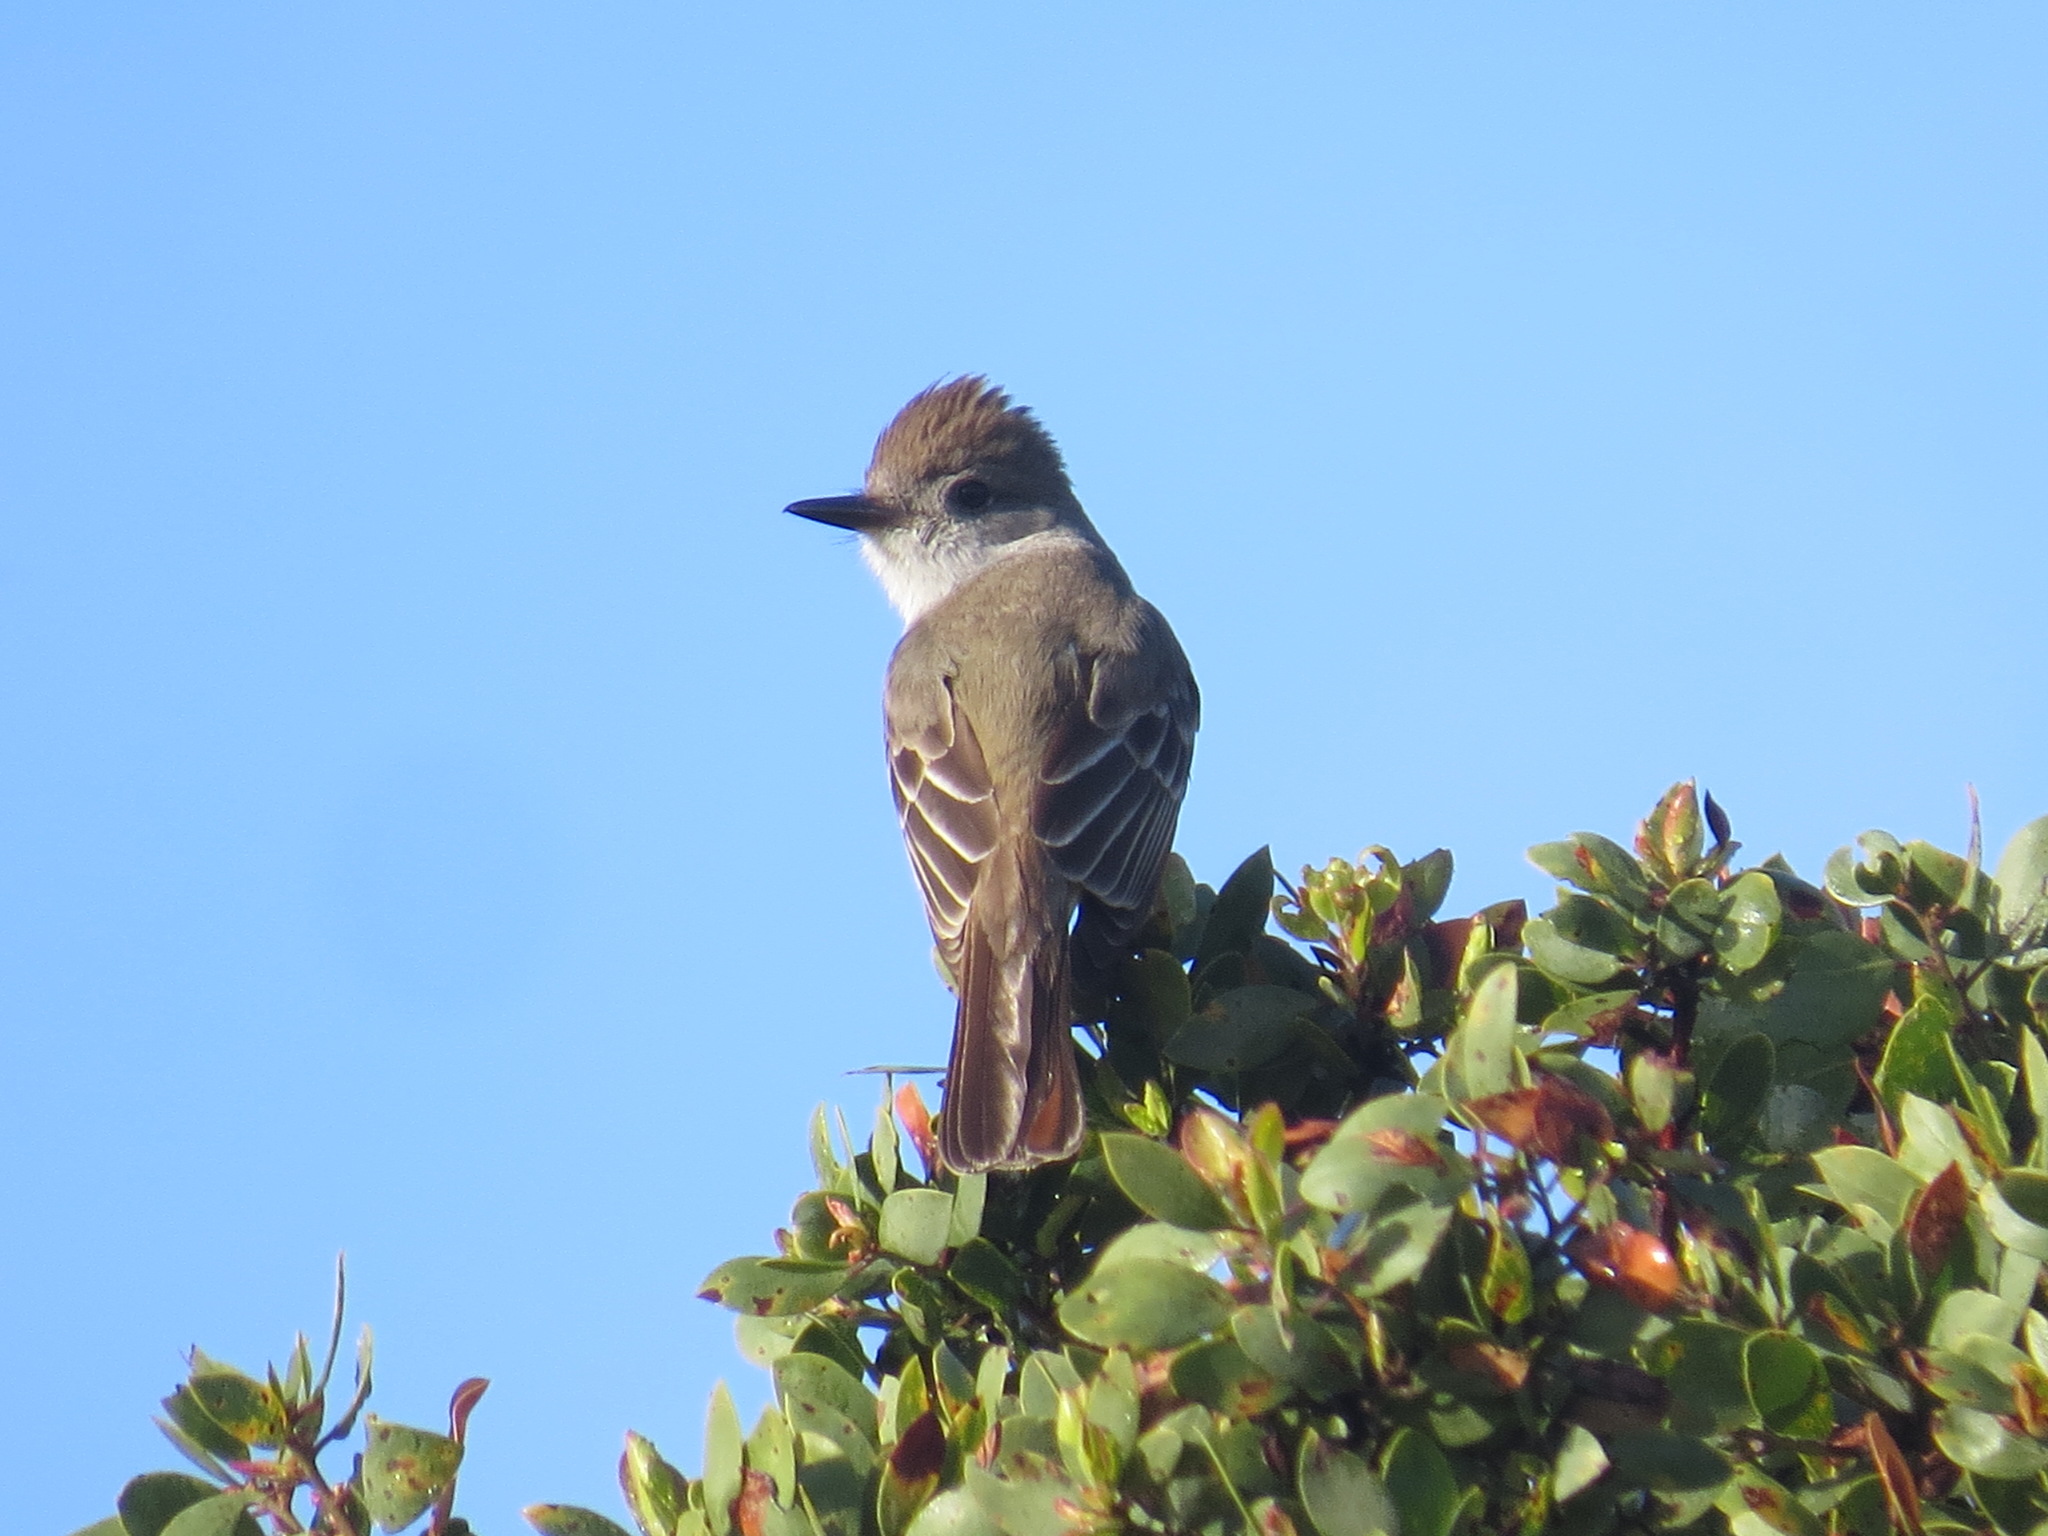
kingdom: Animalia
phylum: Chordata
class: Aves
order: Passeriformes
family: Tyrannidae
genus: Myiarchus
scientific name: Myiarchus cinerascens
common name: Ash-throated flycatcher
